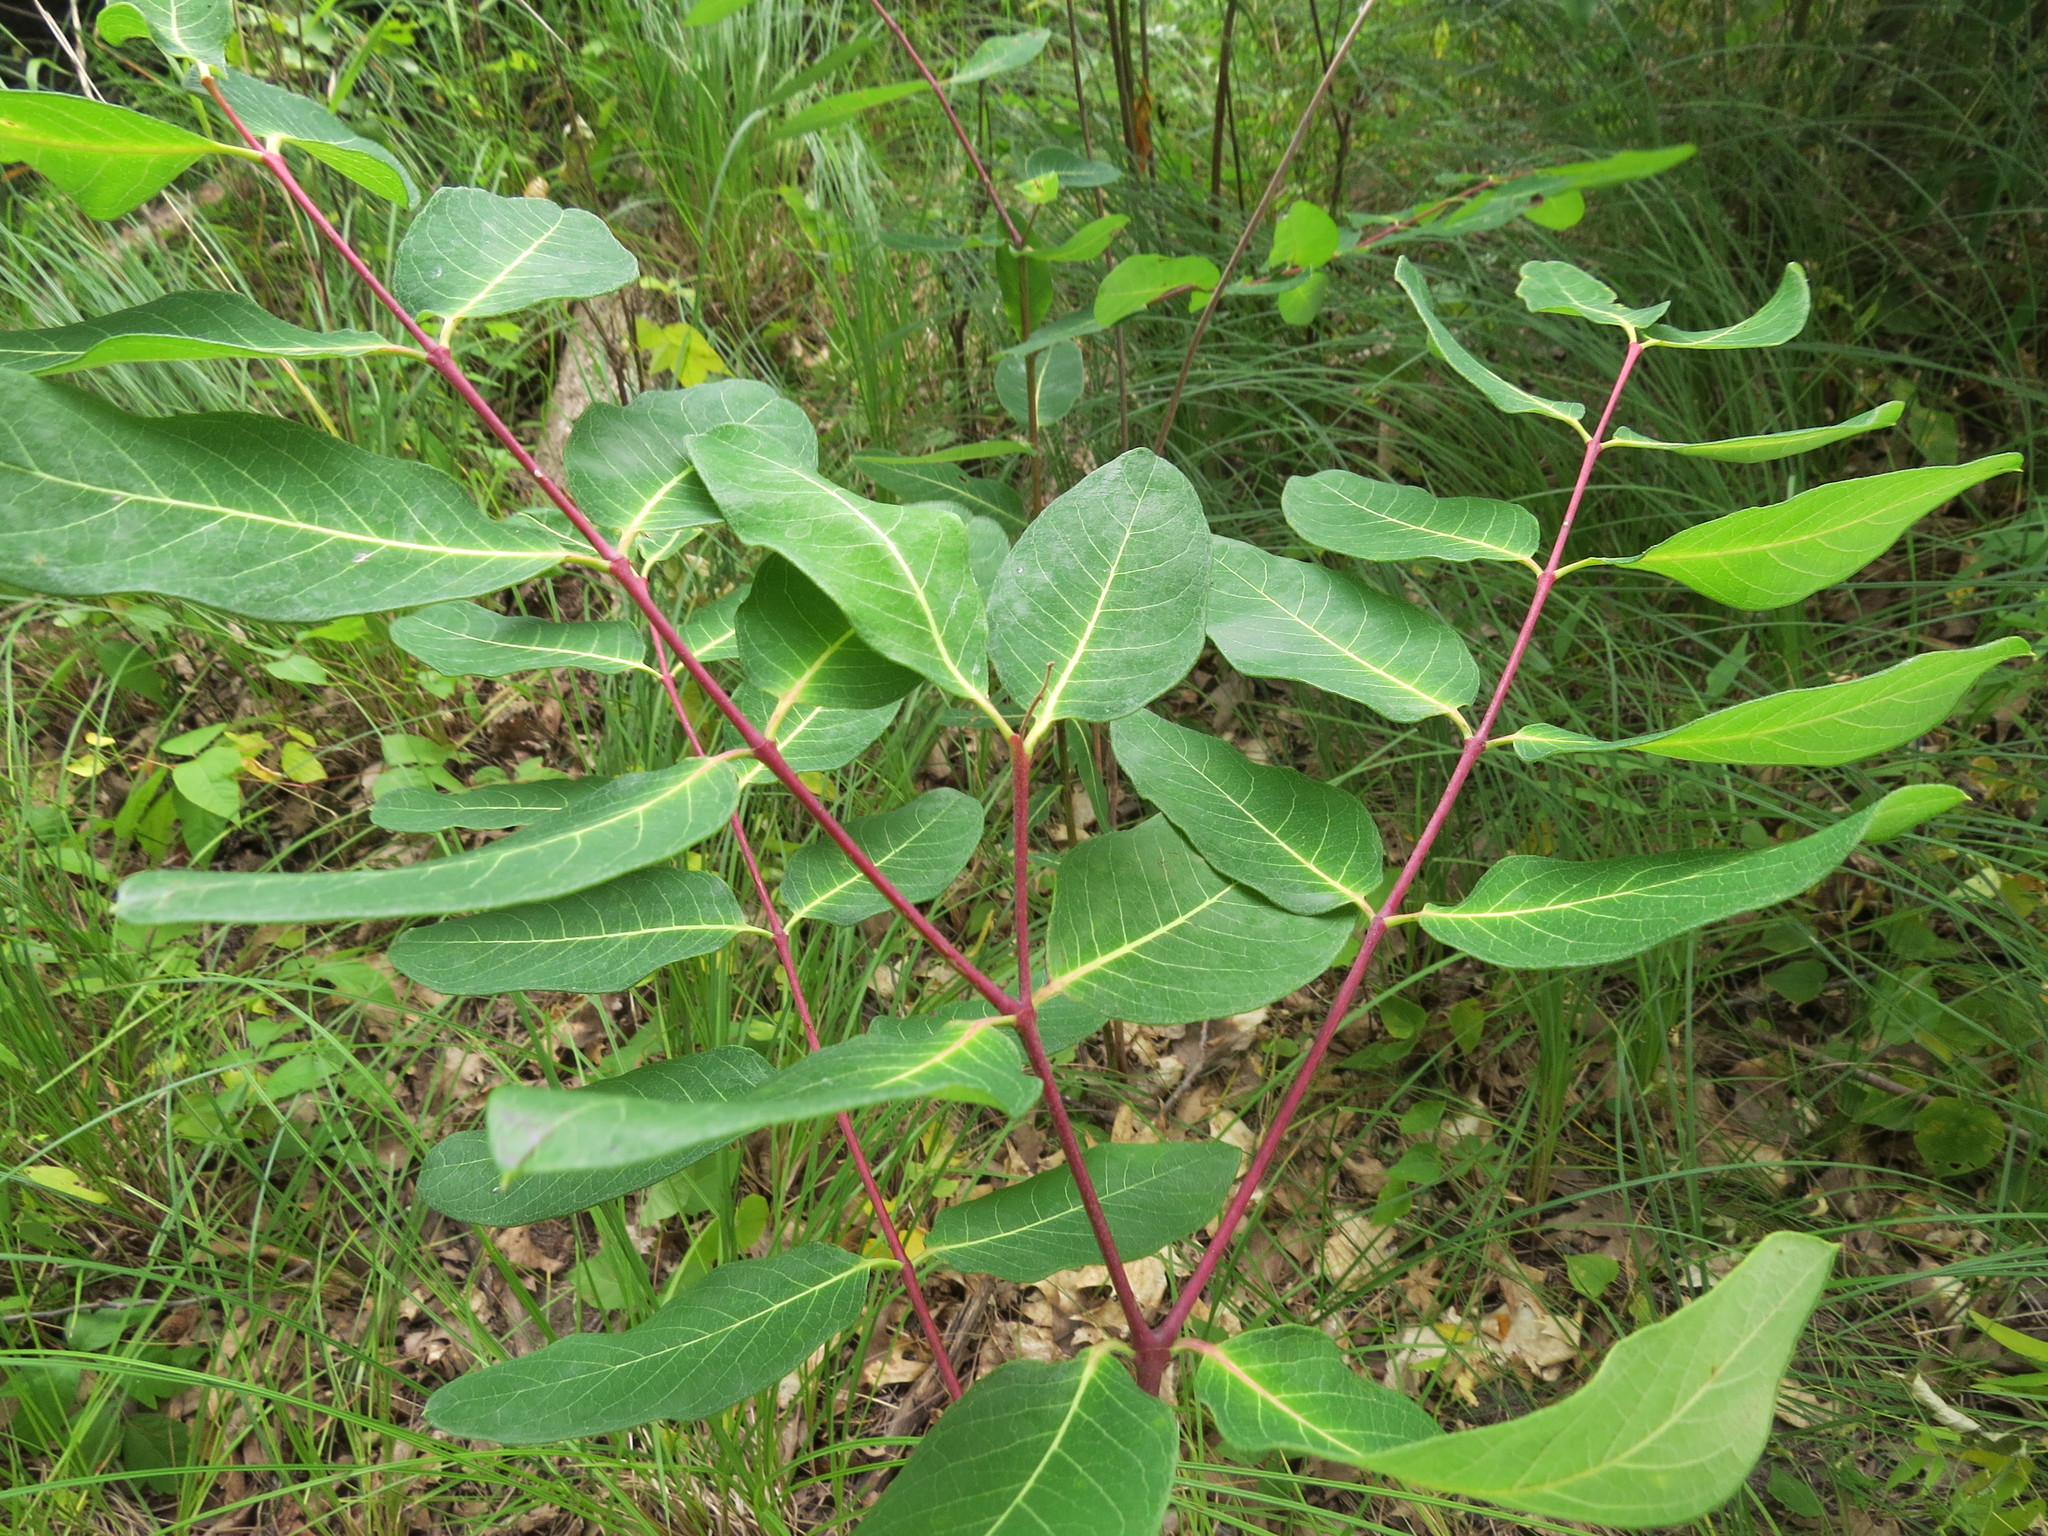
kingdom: Plantae
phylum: Tracheophyta
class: Magnoliopsida
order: Gentianales
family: Apocynaceae
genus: Apocynum
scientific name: Apocynum cannabinum
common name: Hemp dogbane
